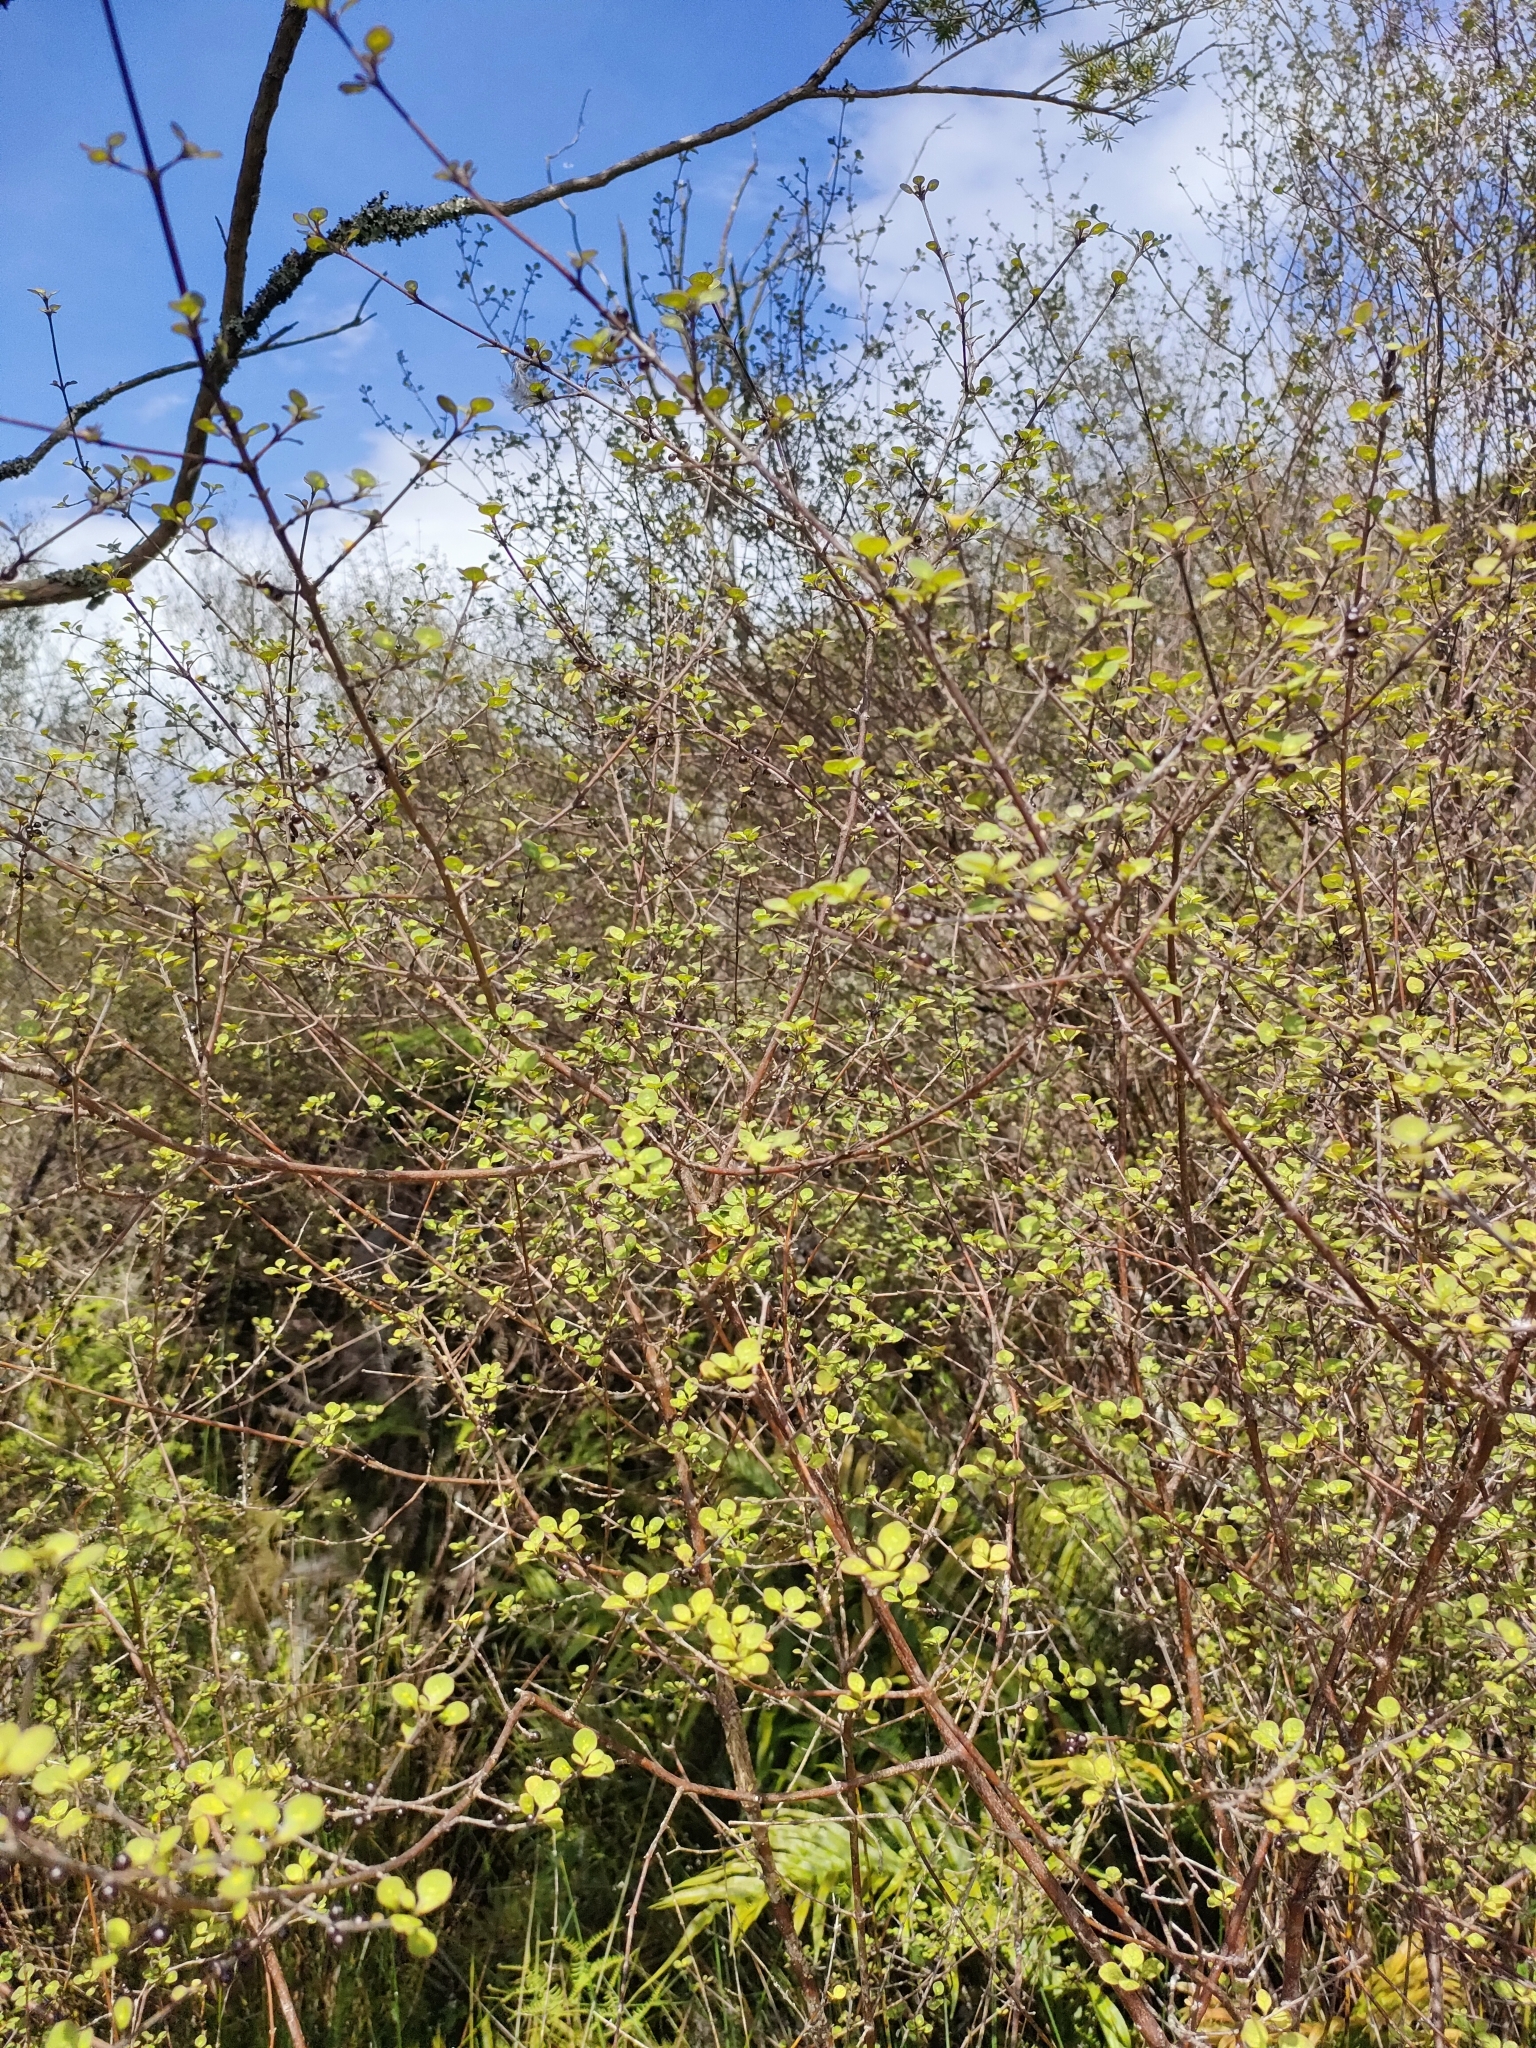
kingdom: Plantae
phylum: Tracheophyta
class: Magnoliopsida
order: Gentianales
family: Rubiaceae
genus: Coprosma
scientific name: Coprosma tenuicaulis
